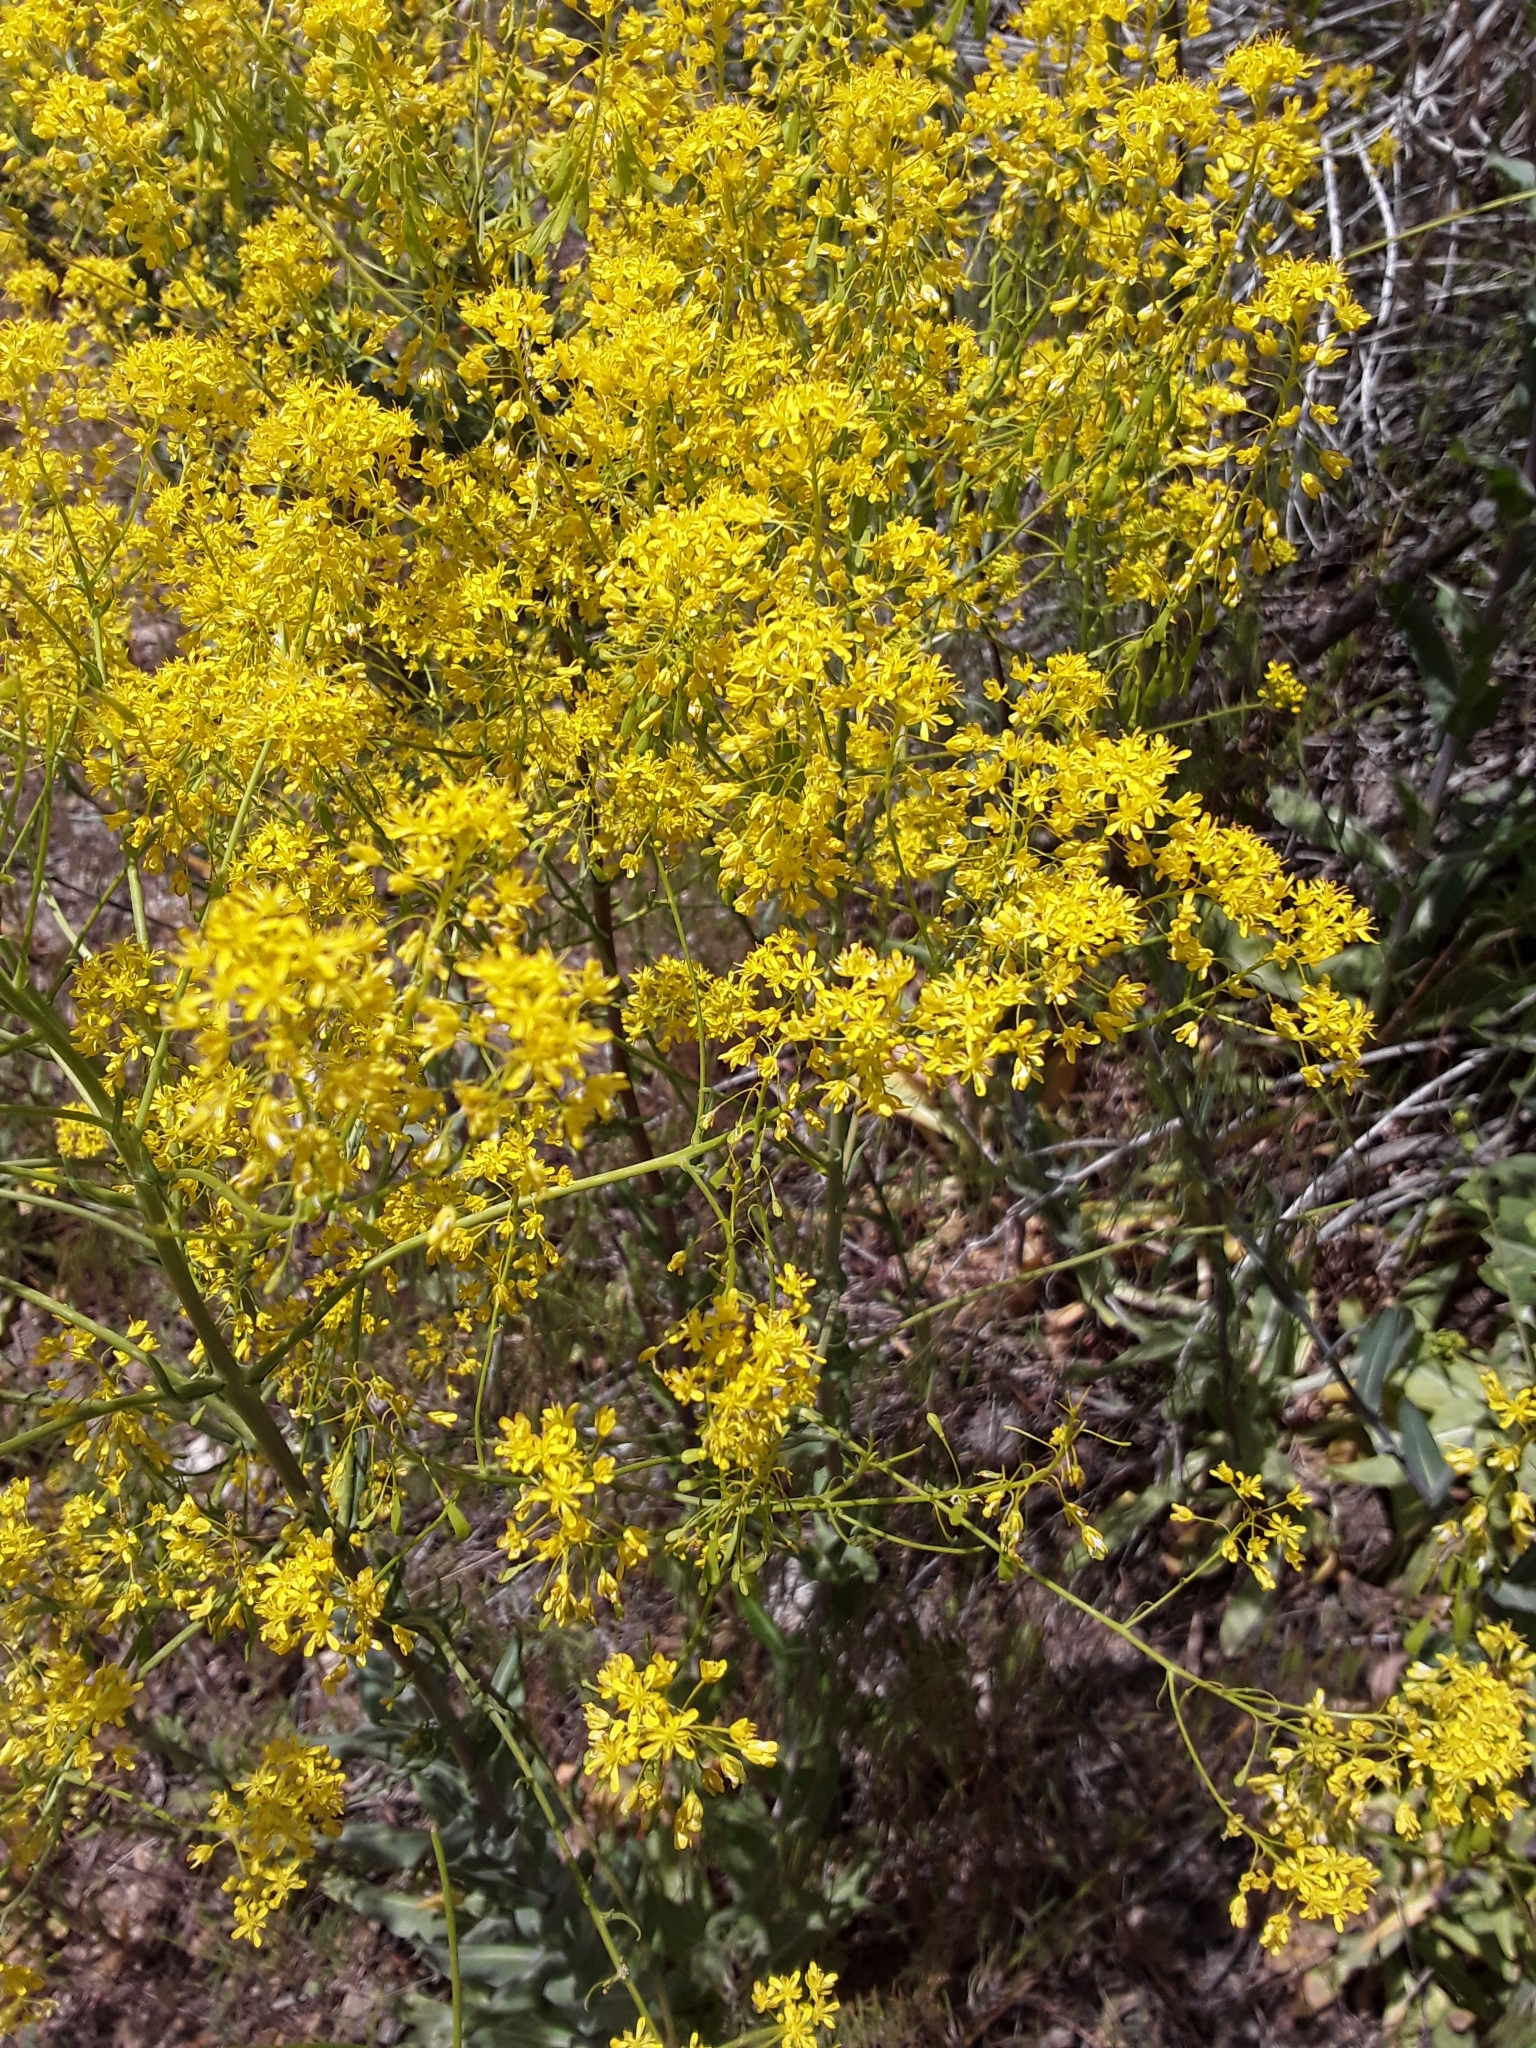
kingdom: Plantae
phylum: Tracheophyta
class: Magnoliopsida
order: Brassicales
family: Brassicaceae
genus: Isatis
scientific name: Isatis tinctoria
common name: Woad
